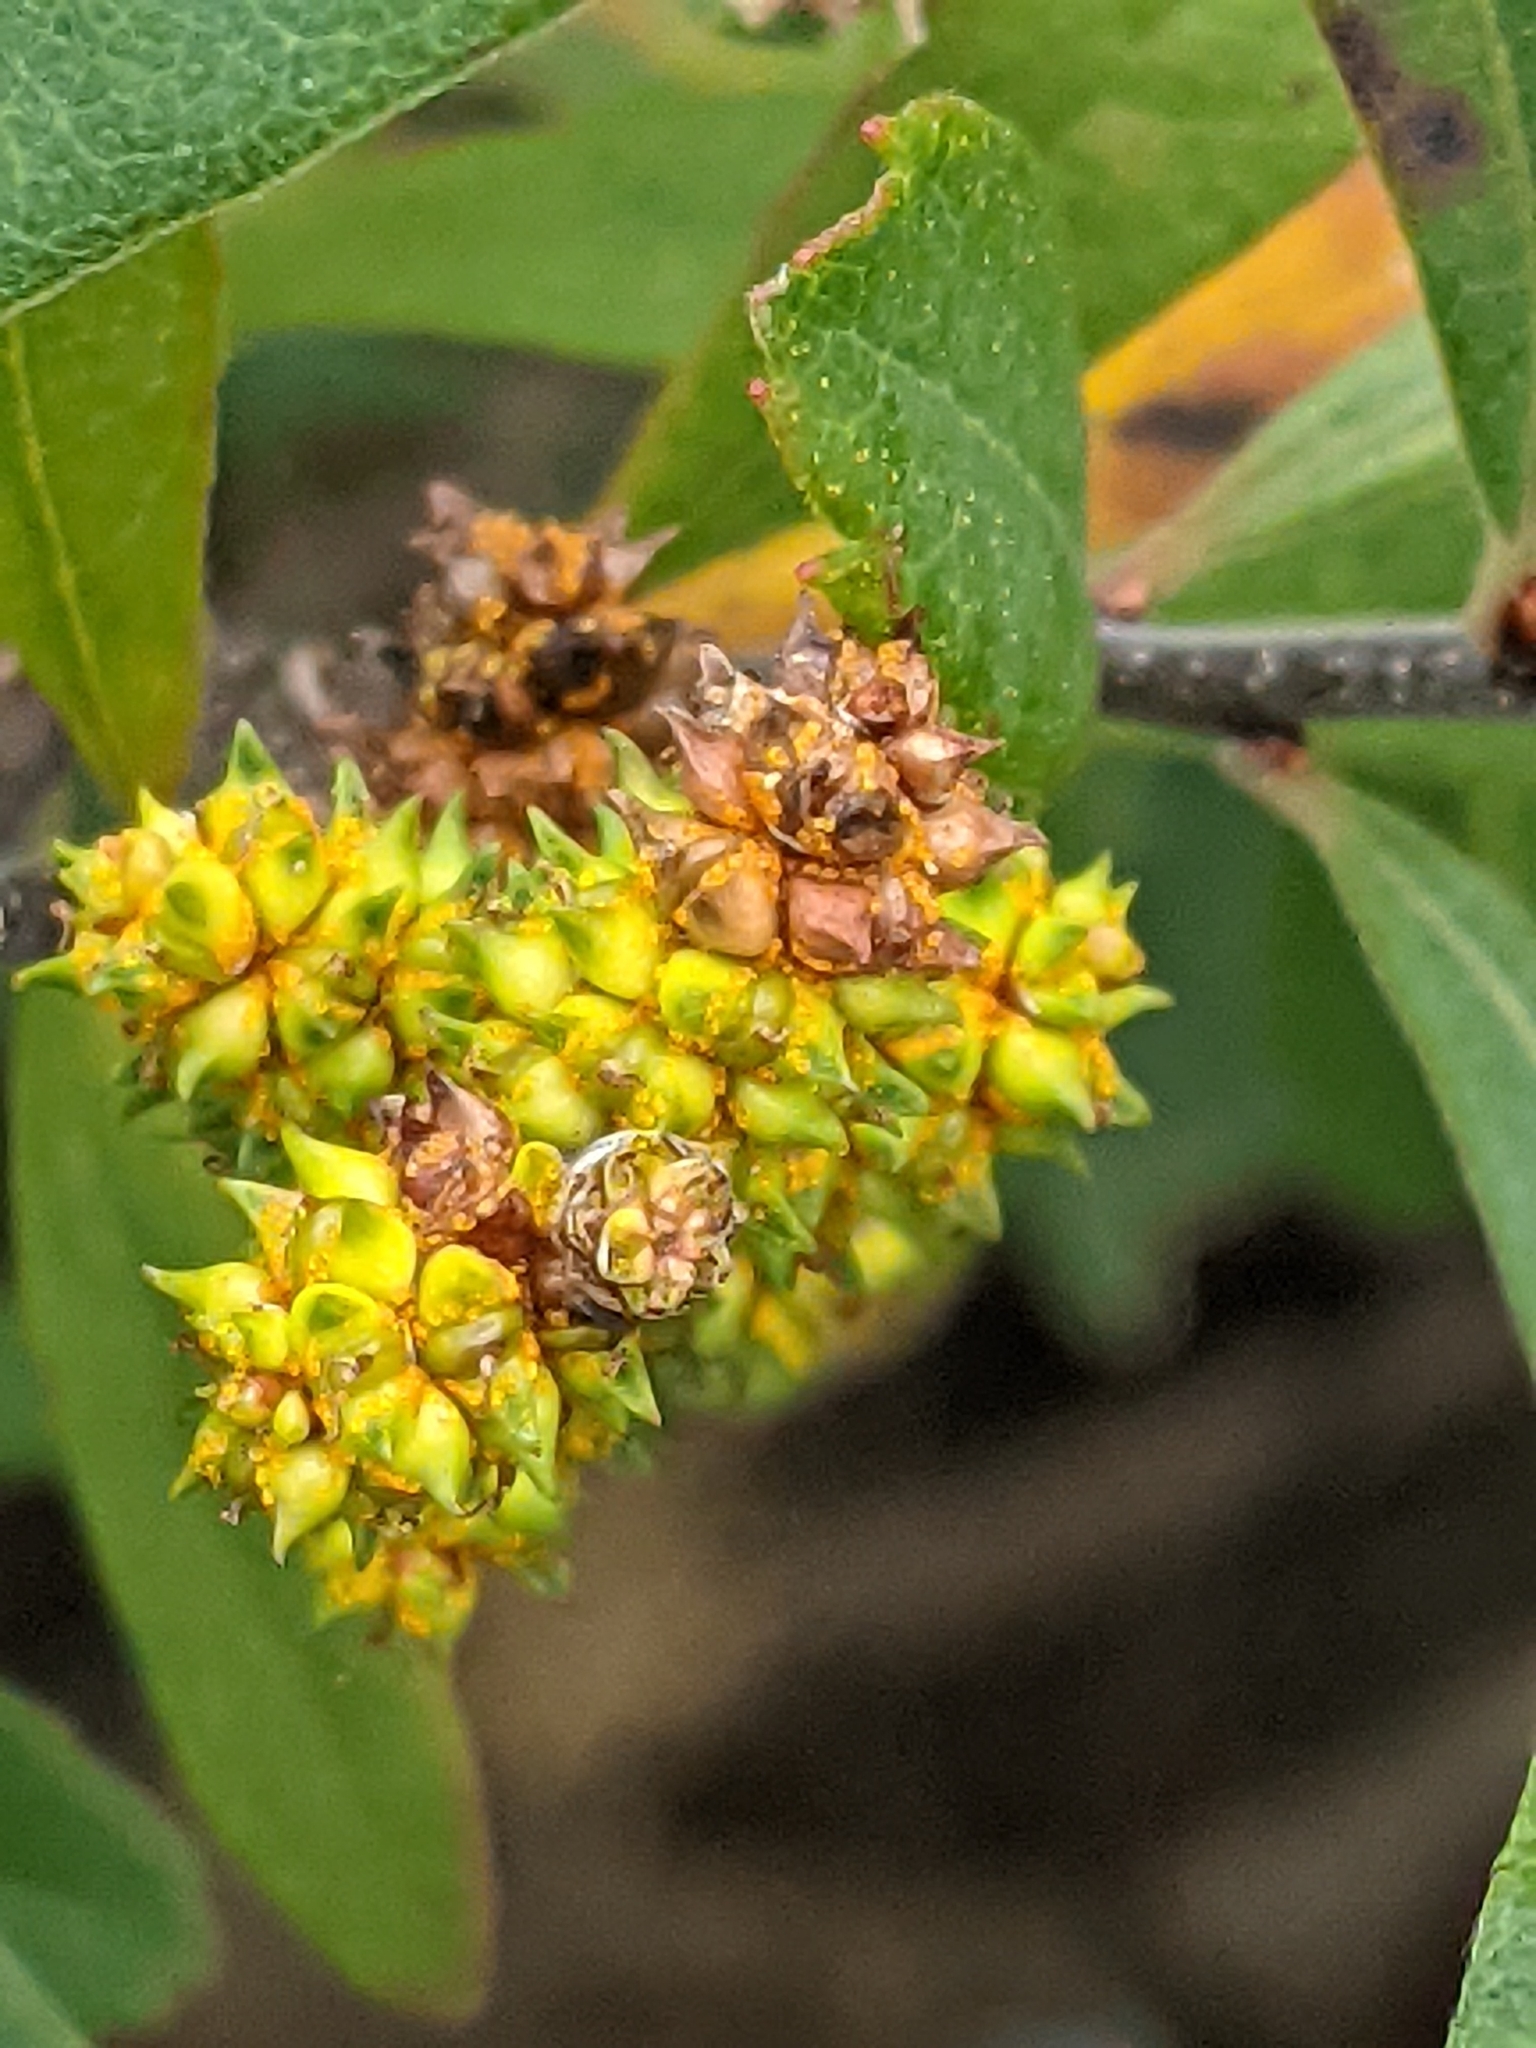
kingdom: Plantae
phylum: Tracheophyta
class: Magnoliopsida
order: Fagales
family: Myricaceae
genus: Myrica
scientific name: Myrica gale
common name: Sweet gale
